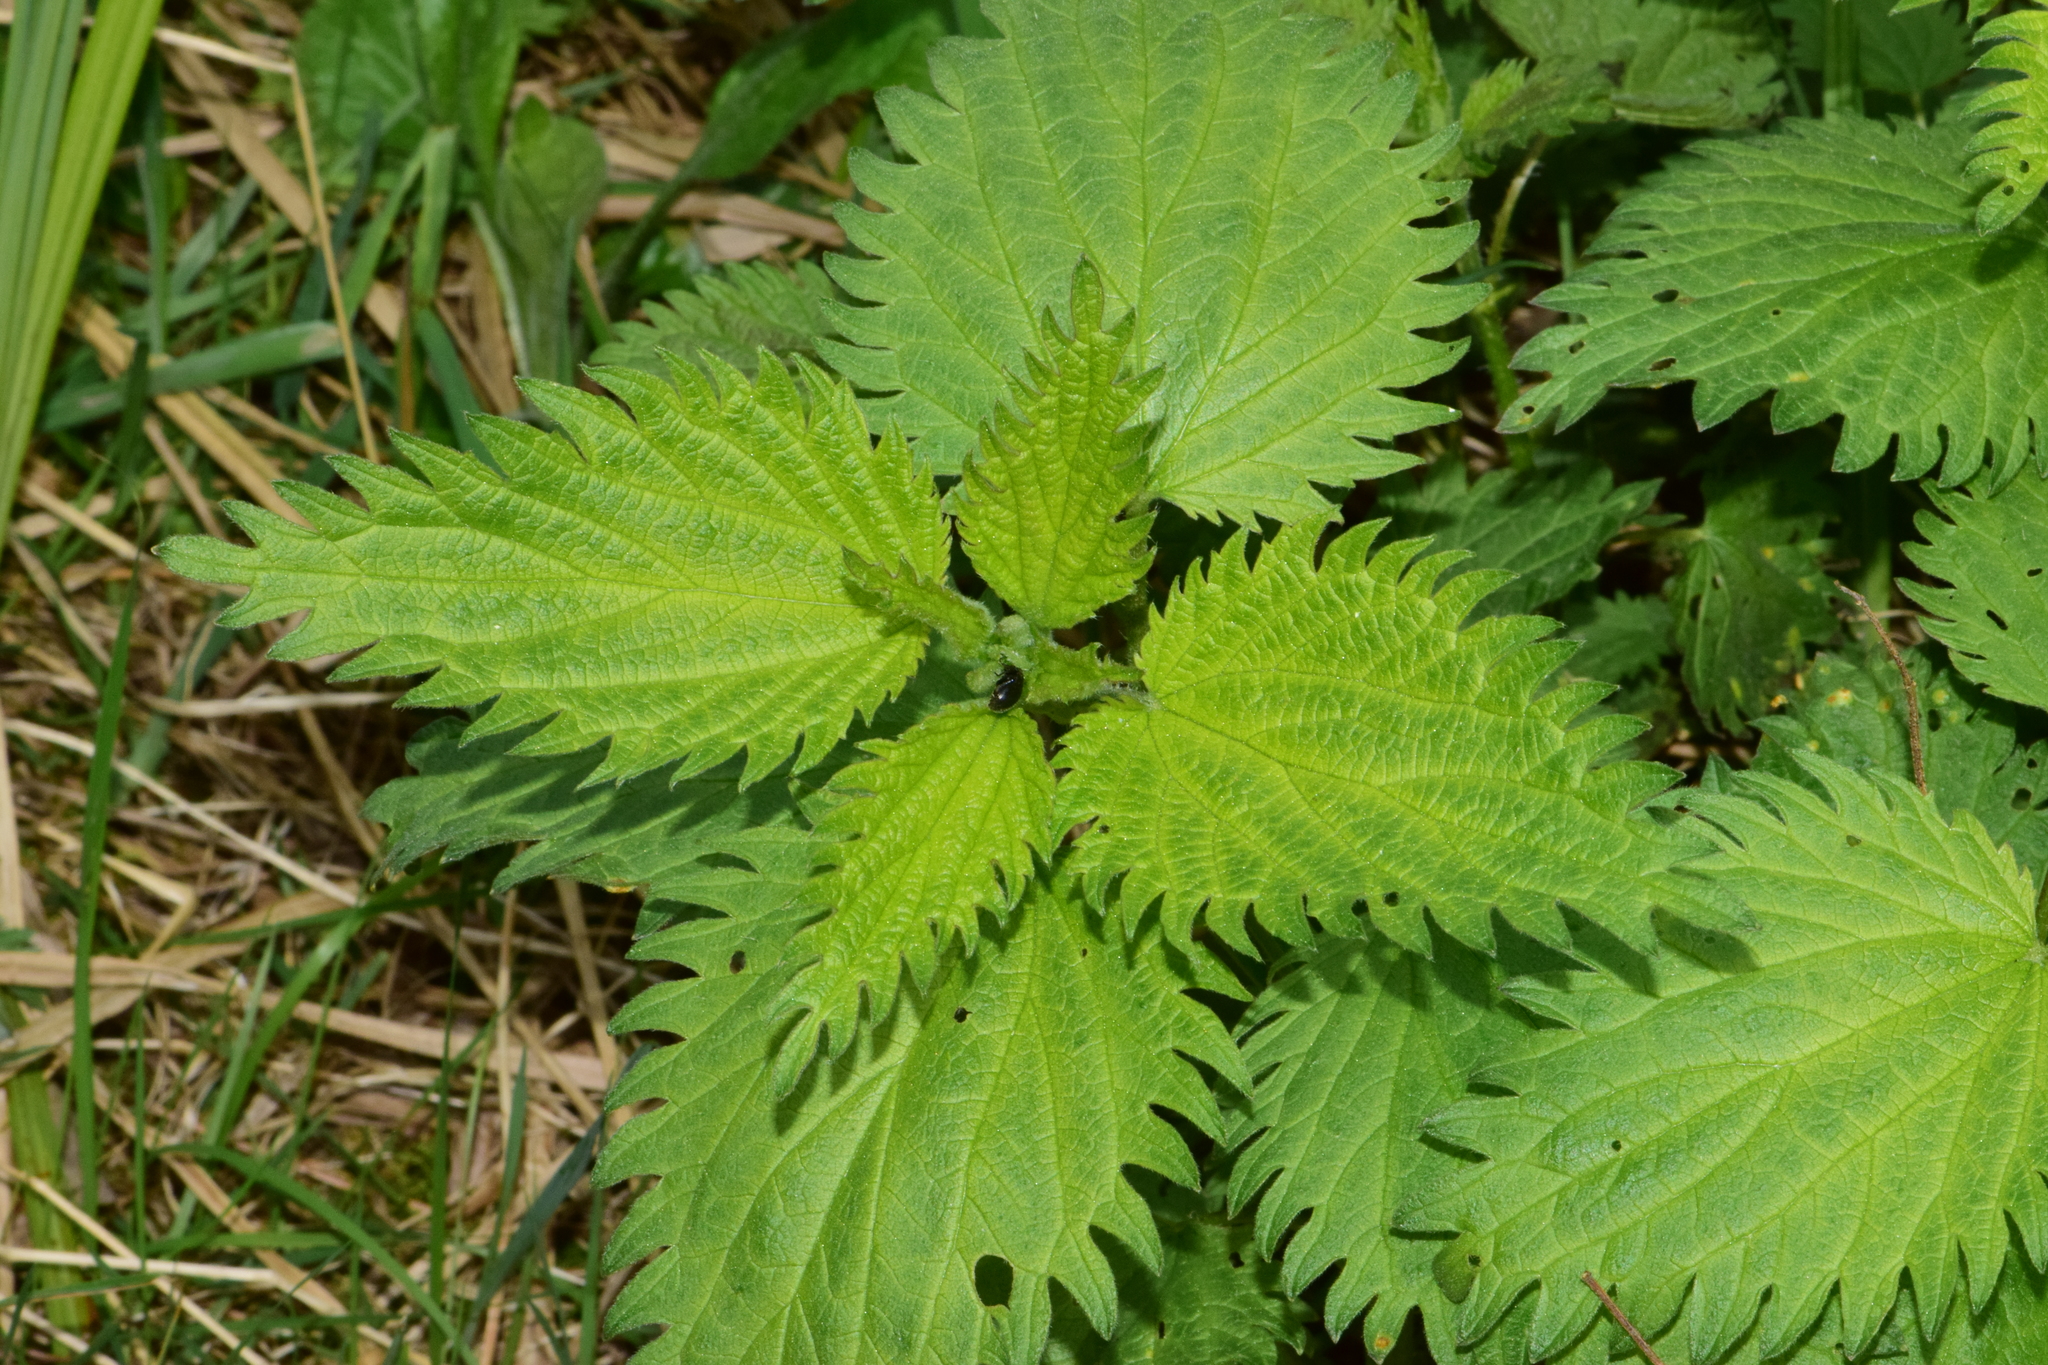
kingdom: Animalia
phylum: Arthropoda
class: Insecta
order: Coleoptera
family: Chrysomelidae
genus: Bromius
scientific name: Bromius obscurus
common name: Western grape rootworm
